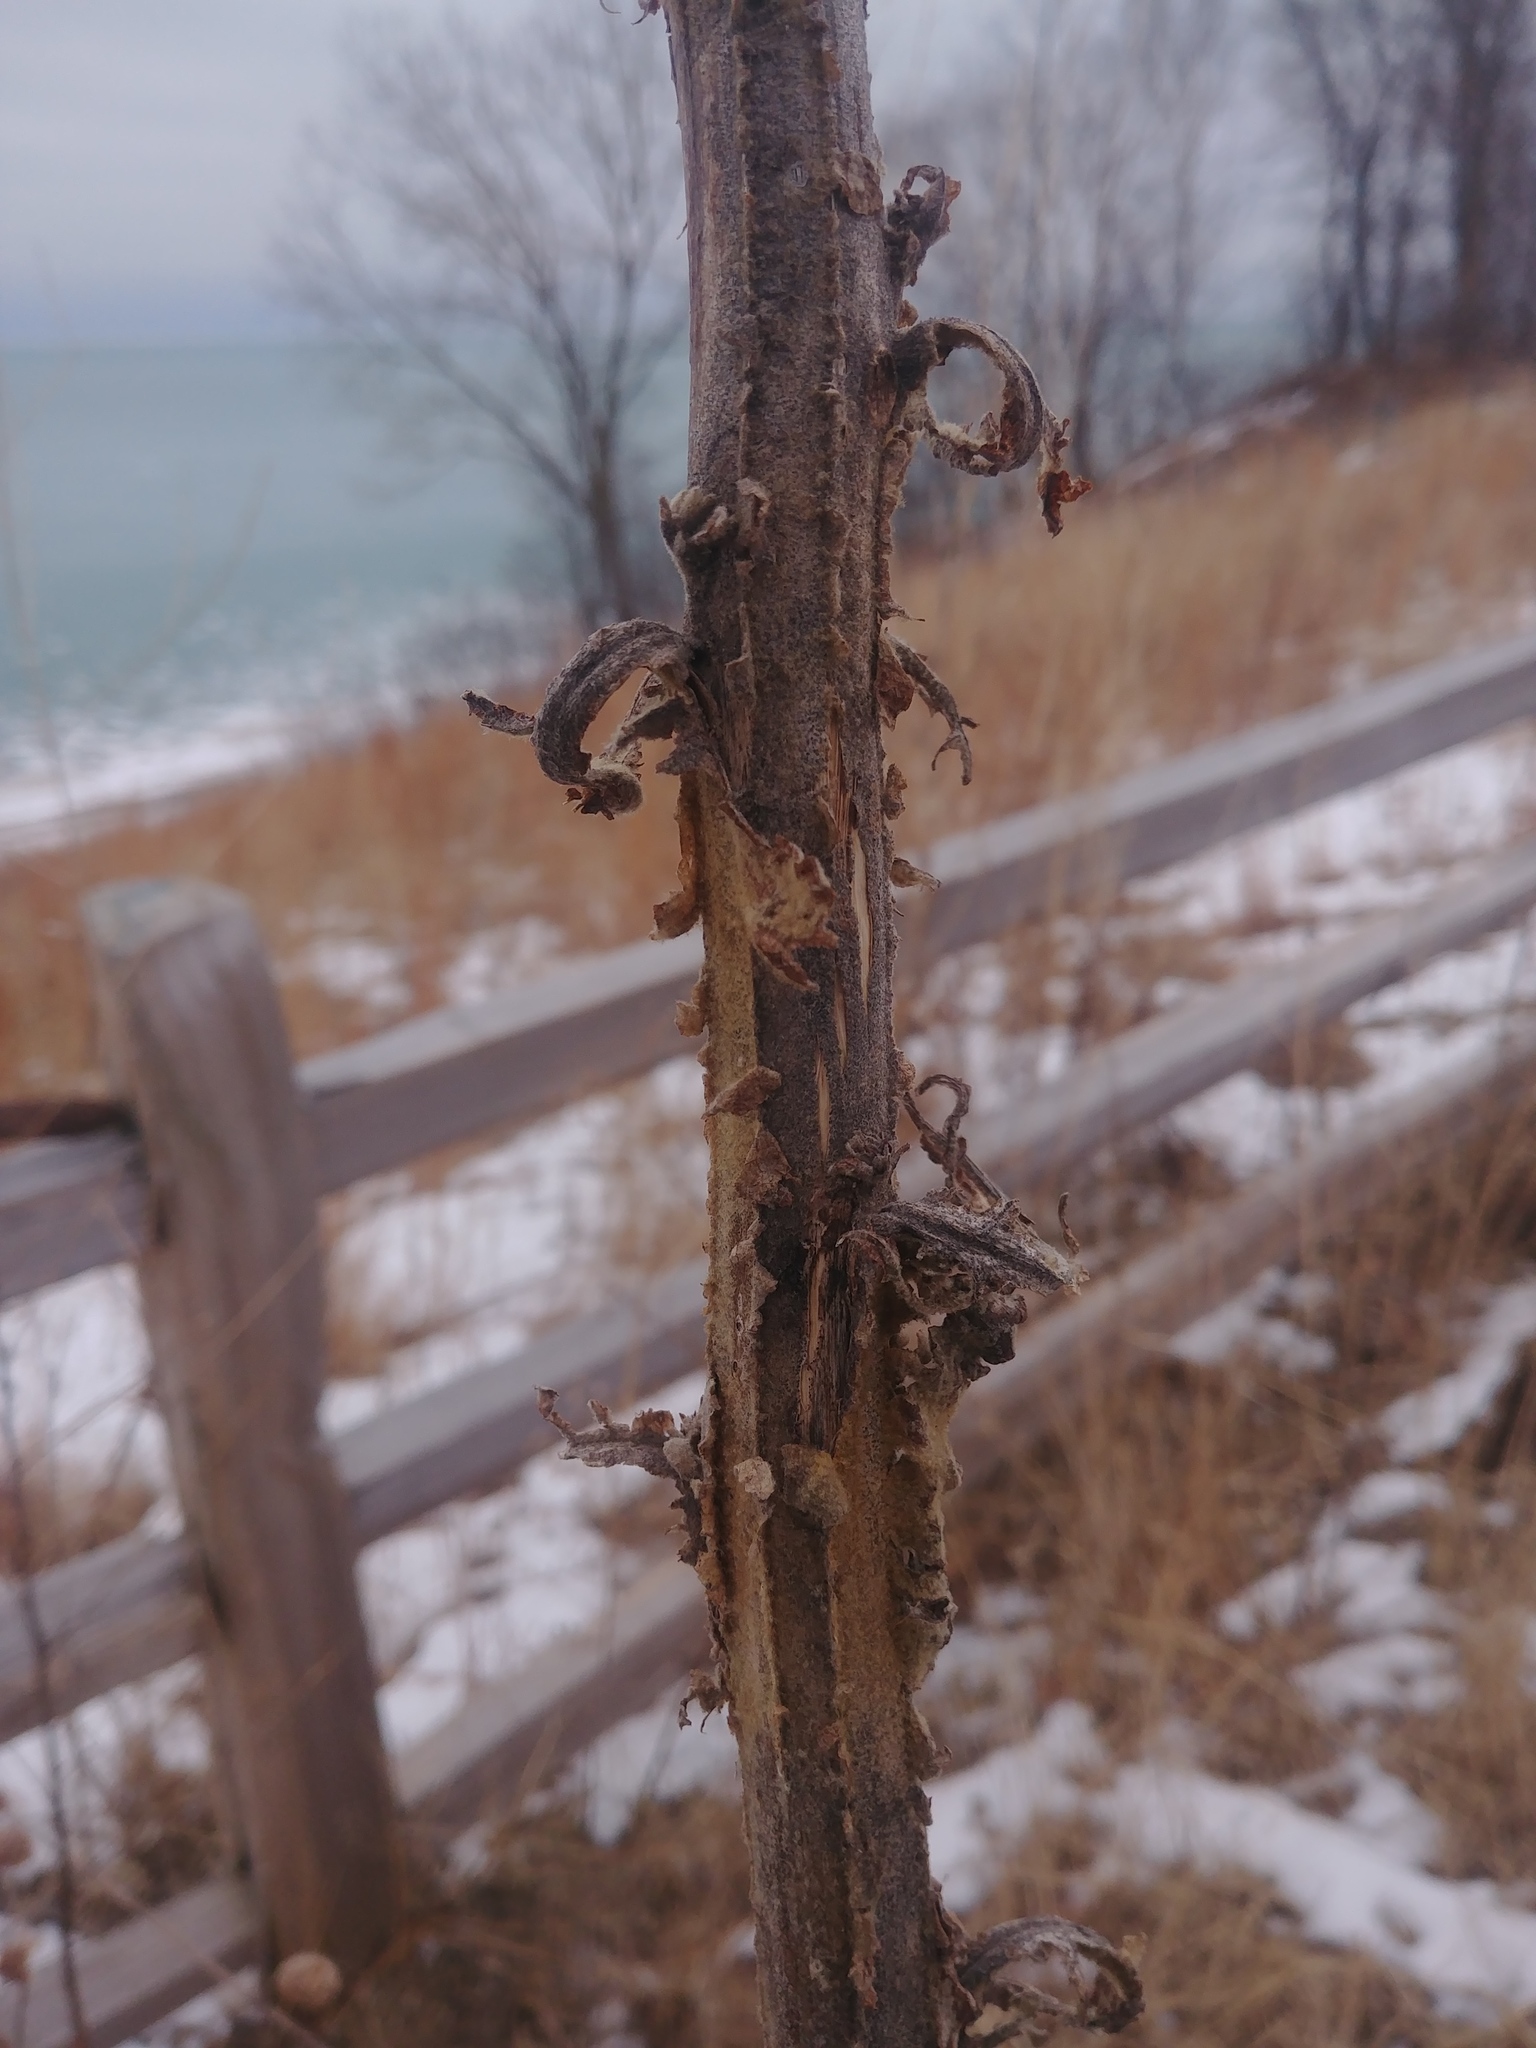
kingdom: Plantae
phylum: Tracheophyta
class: Magnoliopsida
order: Lamiales
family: Scrophulariaceae
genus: Verbascum
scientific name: Verbascum thapsus
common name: Common mullein
